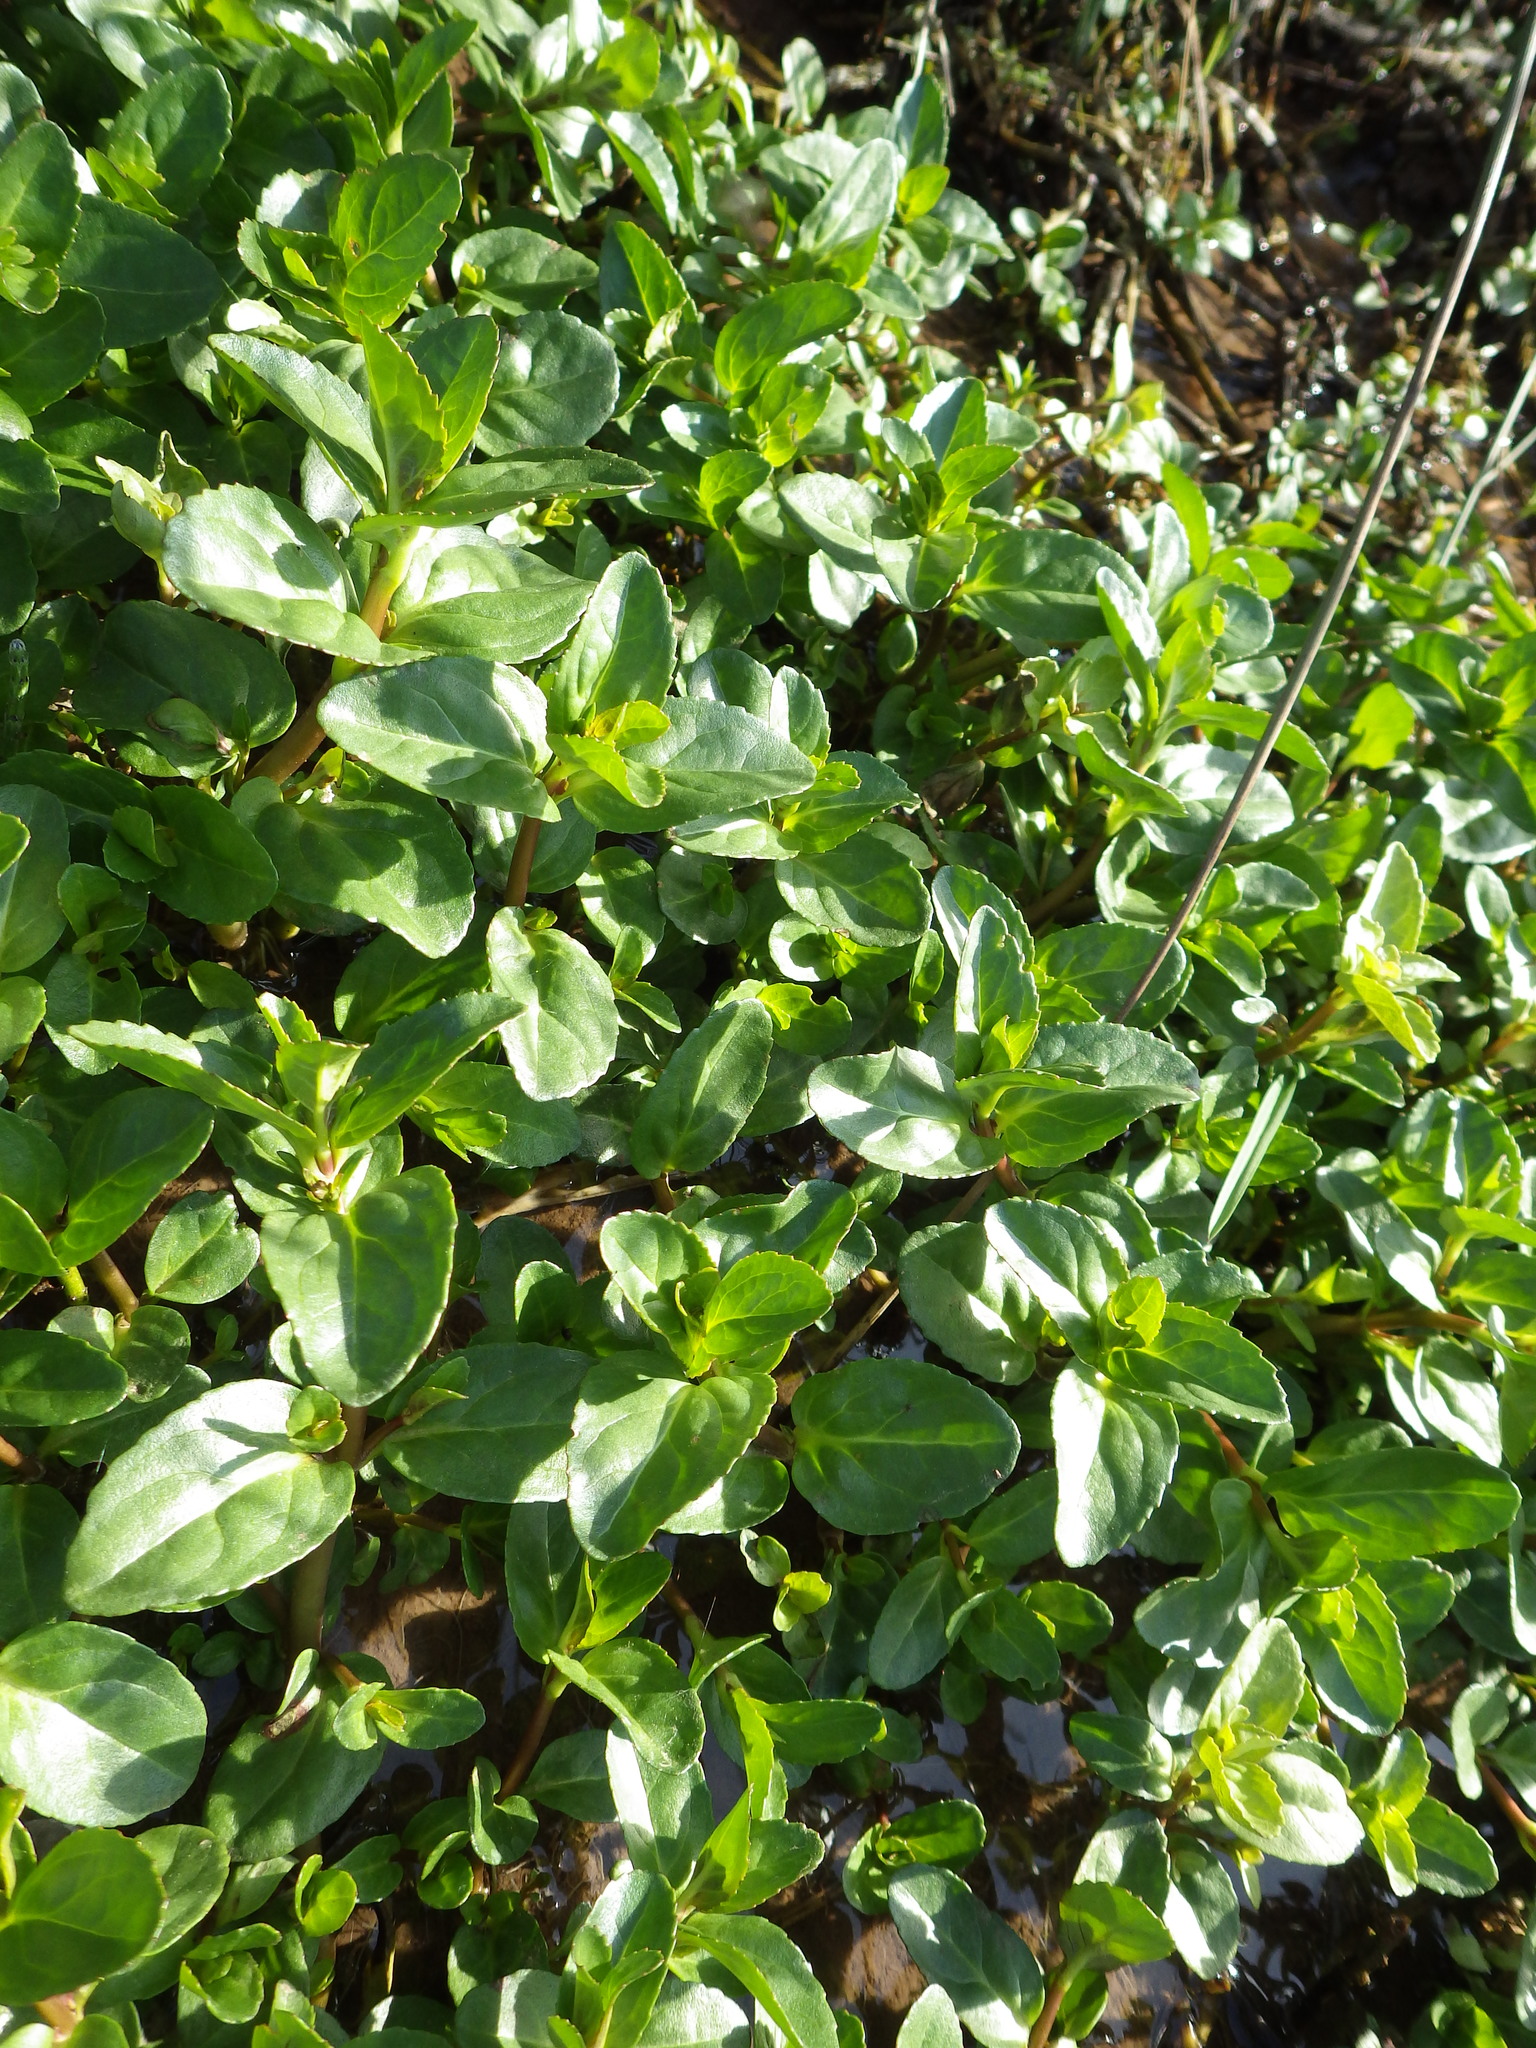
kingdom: Plantae
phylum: Tracheophyta
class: Magnoliopsida
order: Lamiales
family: Plantaginaceae
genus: Veronica
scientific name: Veronica beccabunga
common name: Brooklime
